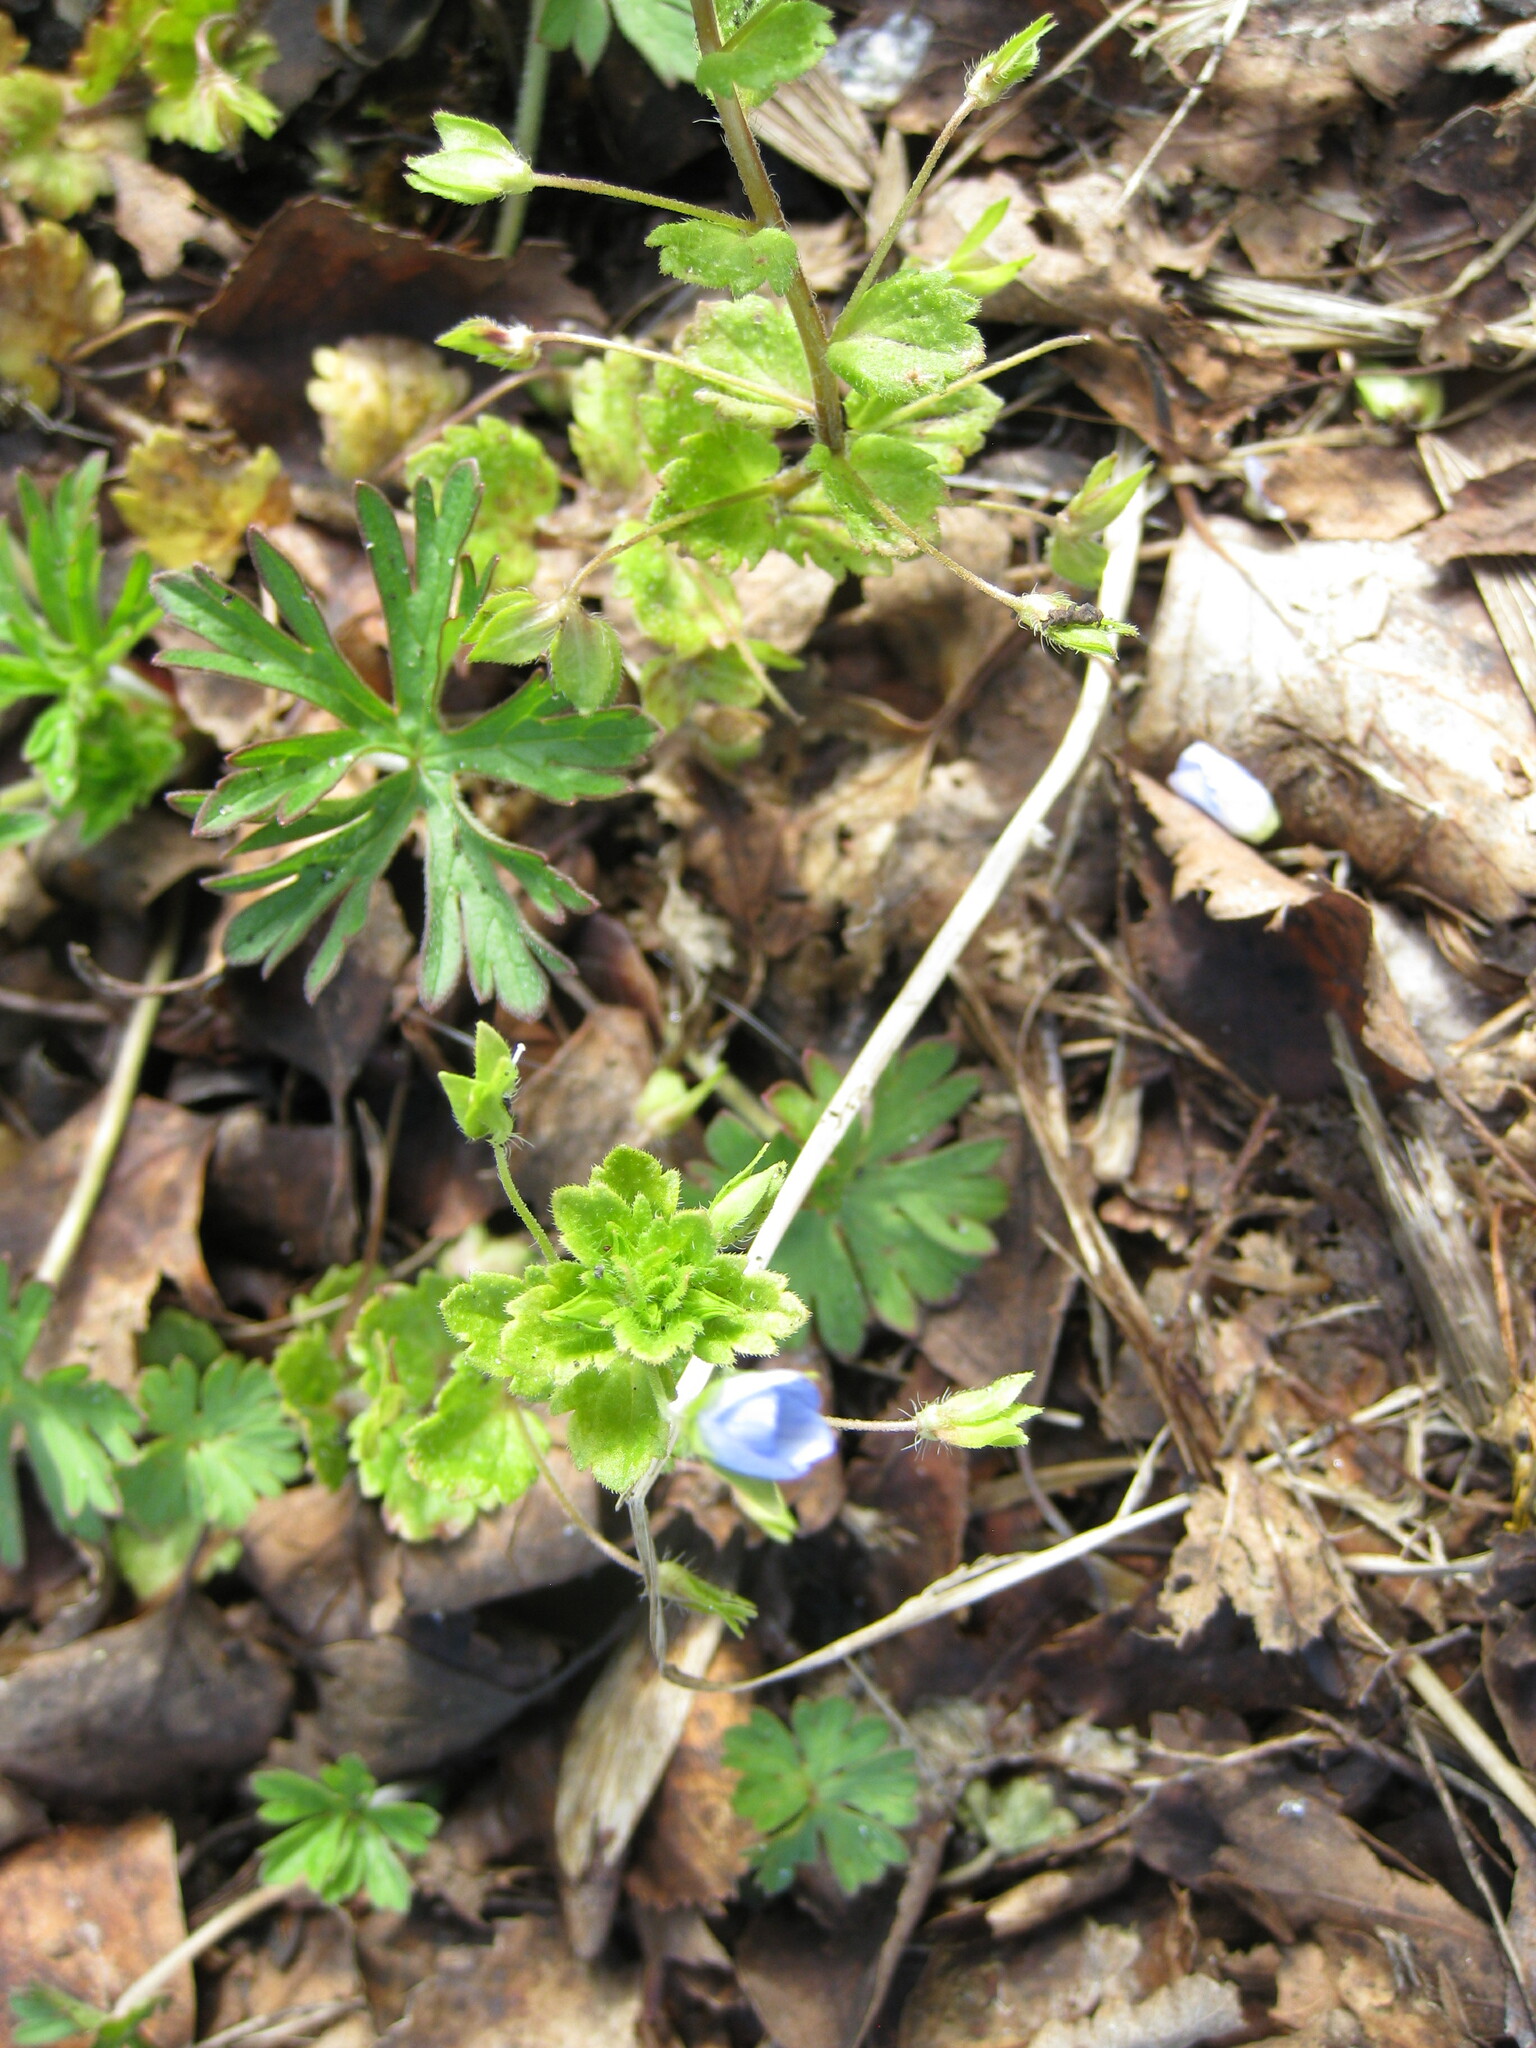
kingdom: Plantae
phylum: Tracheophyta
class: Magnoliopsida
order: Lamiales
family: Plantaginaceae
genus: Veronica
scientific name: Veronica persica
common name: Common field-speedwell
